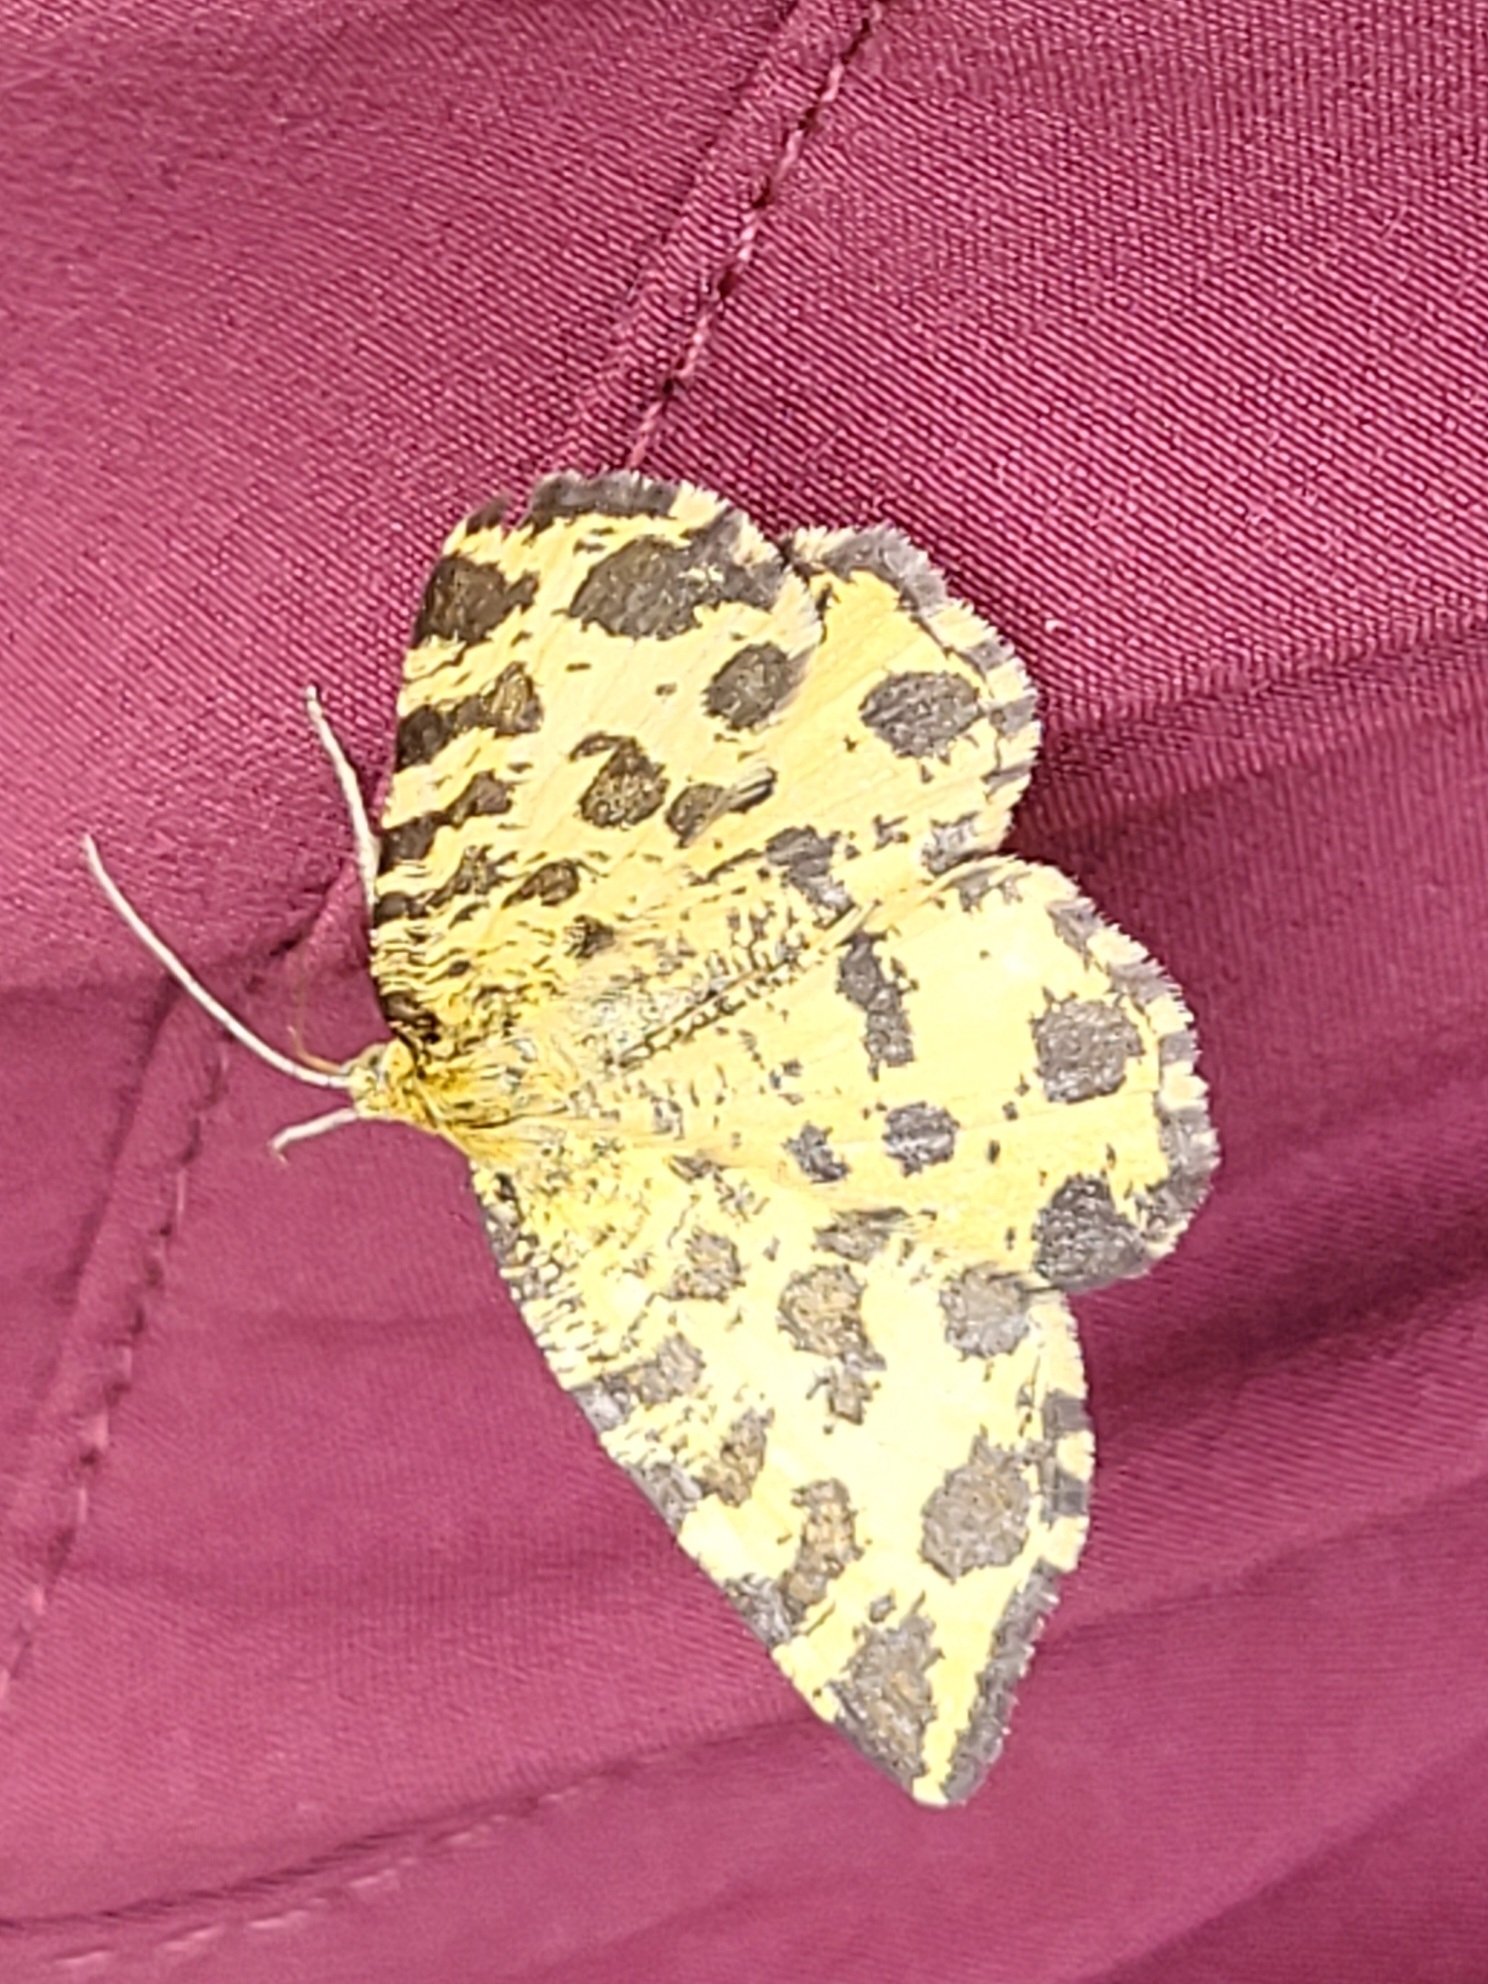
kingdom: Animalia
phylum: Arthropoda
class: Insecta
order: Lepidoptera
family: Geometridae
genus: Pseudopanthera
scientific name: Pseudopanthera macularia
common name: Speckled yellow
